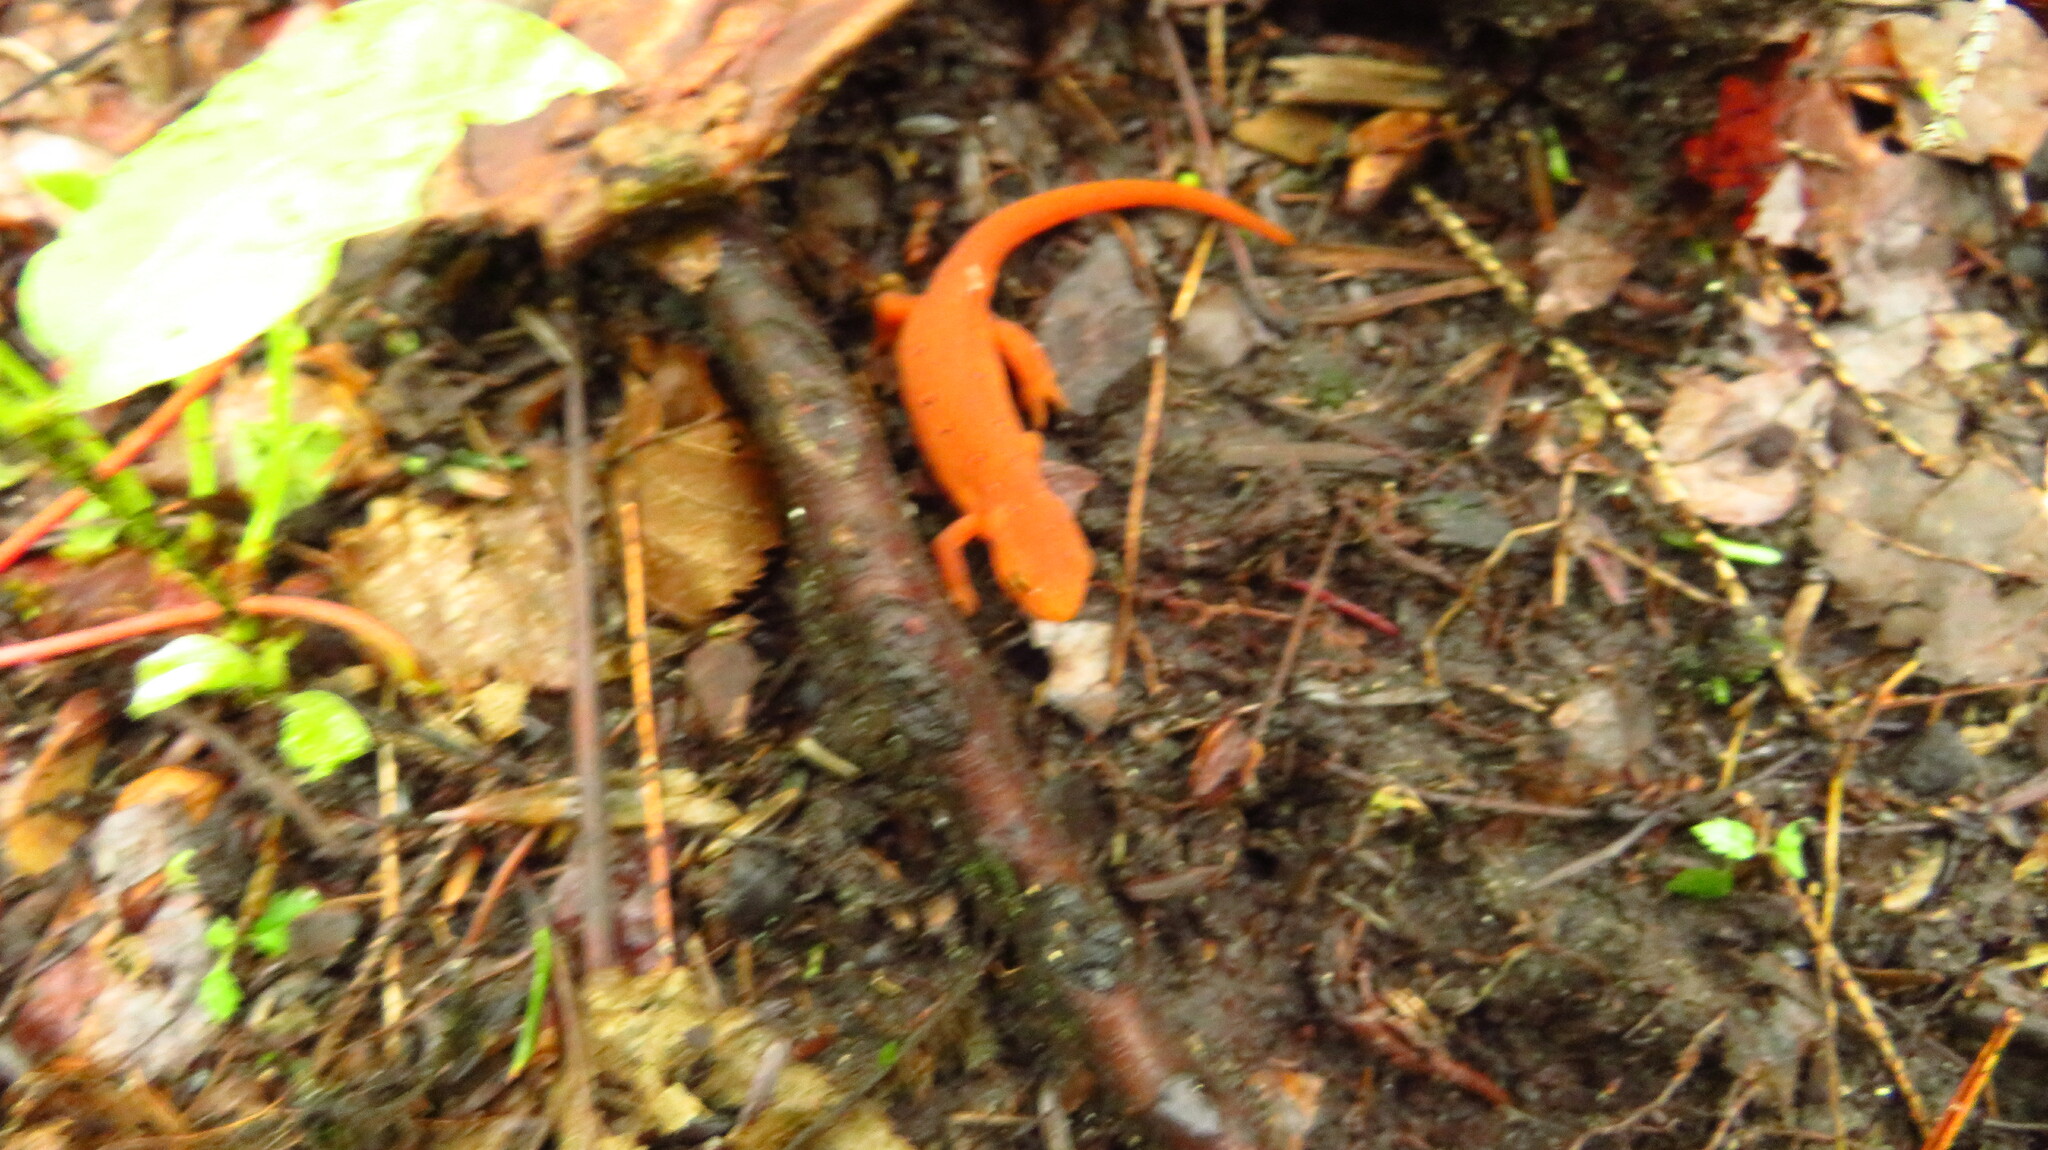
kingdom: Animalia
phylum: Chordata
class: Amphibia
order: Caudata
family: Salamandridae
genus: Notophthalmus
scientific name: Notophthalmus viridescens
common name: Eastern newt
